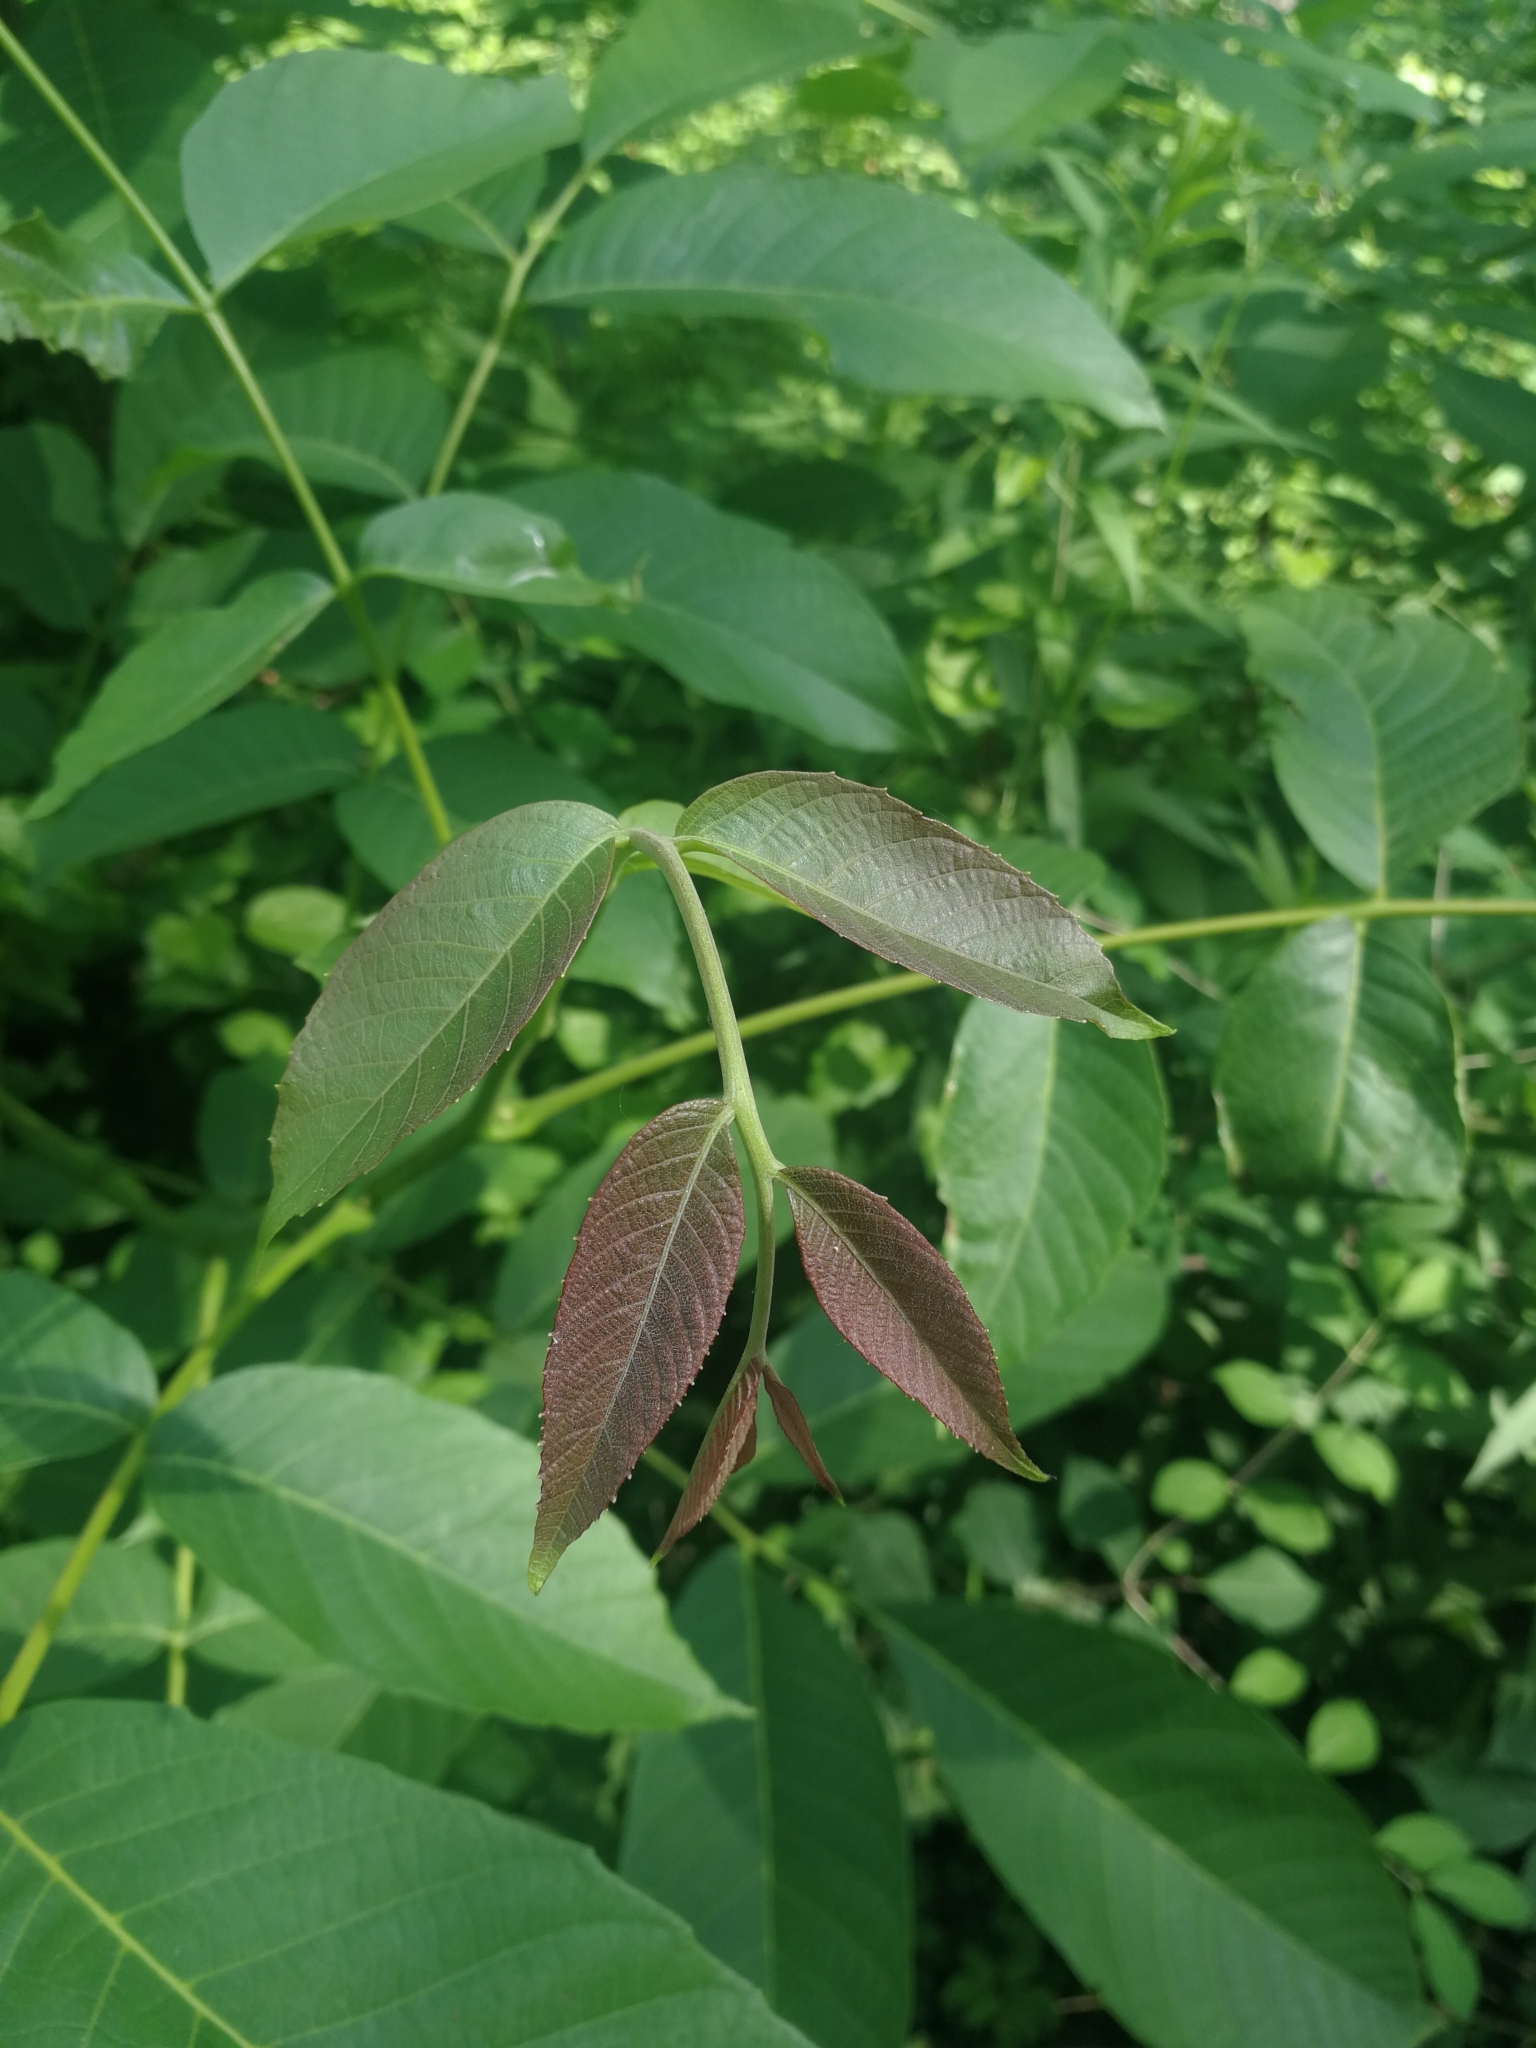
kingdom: Plantae
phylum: Tracheophyta
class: Magnoliopsida
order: Fagales
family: Juglandaceae
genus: Juglans
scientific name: Juglans regia
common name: Walnut
